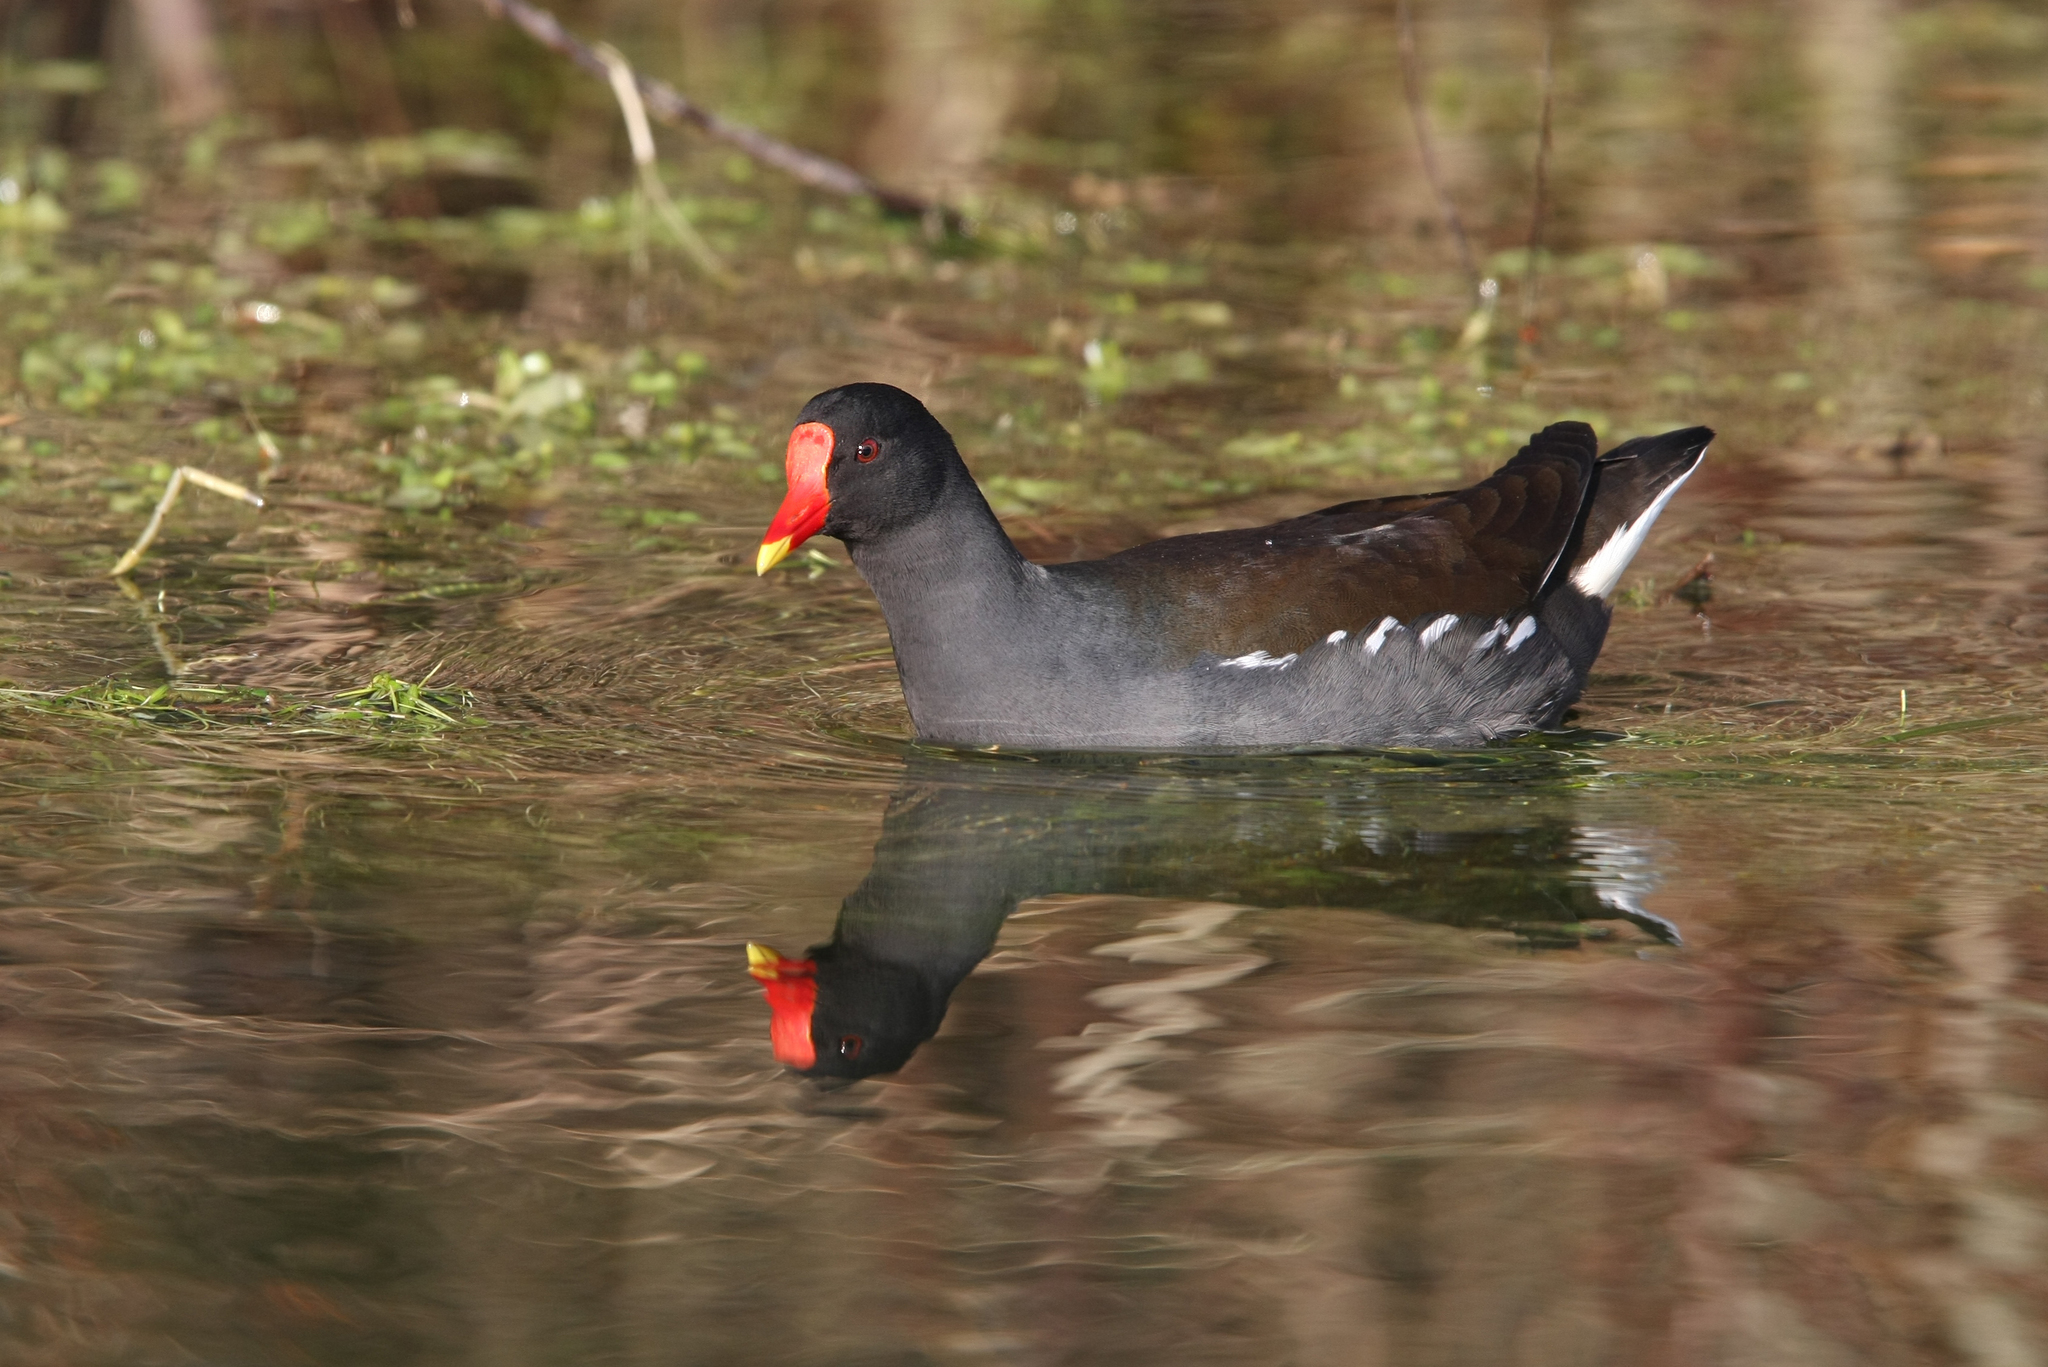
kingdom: Animalia
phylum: Chordata
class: Aves
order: Gruiformes
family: Rallidae
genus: Gallinula
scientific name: Gallinula chloropus
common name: Common moorhen
